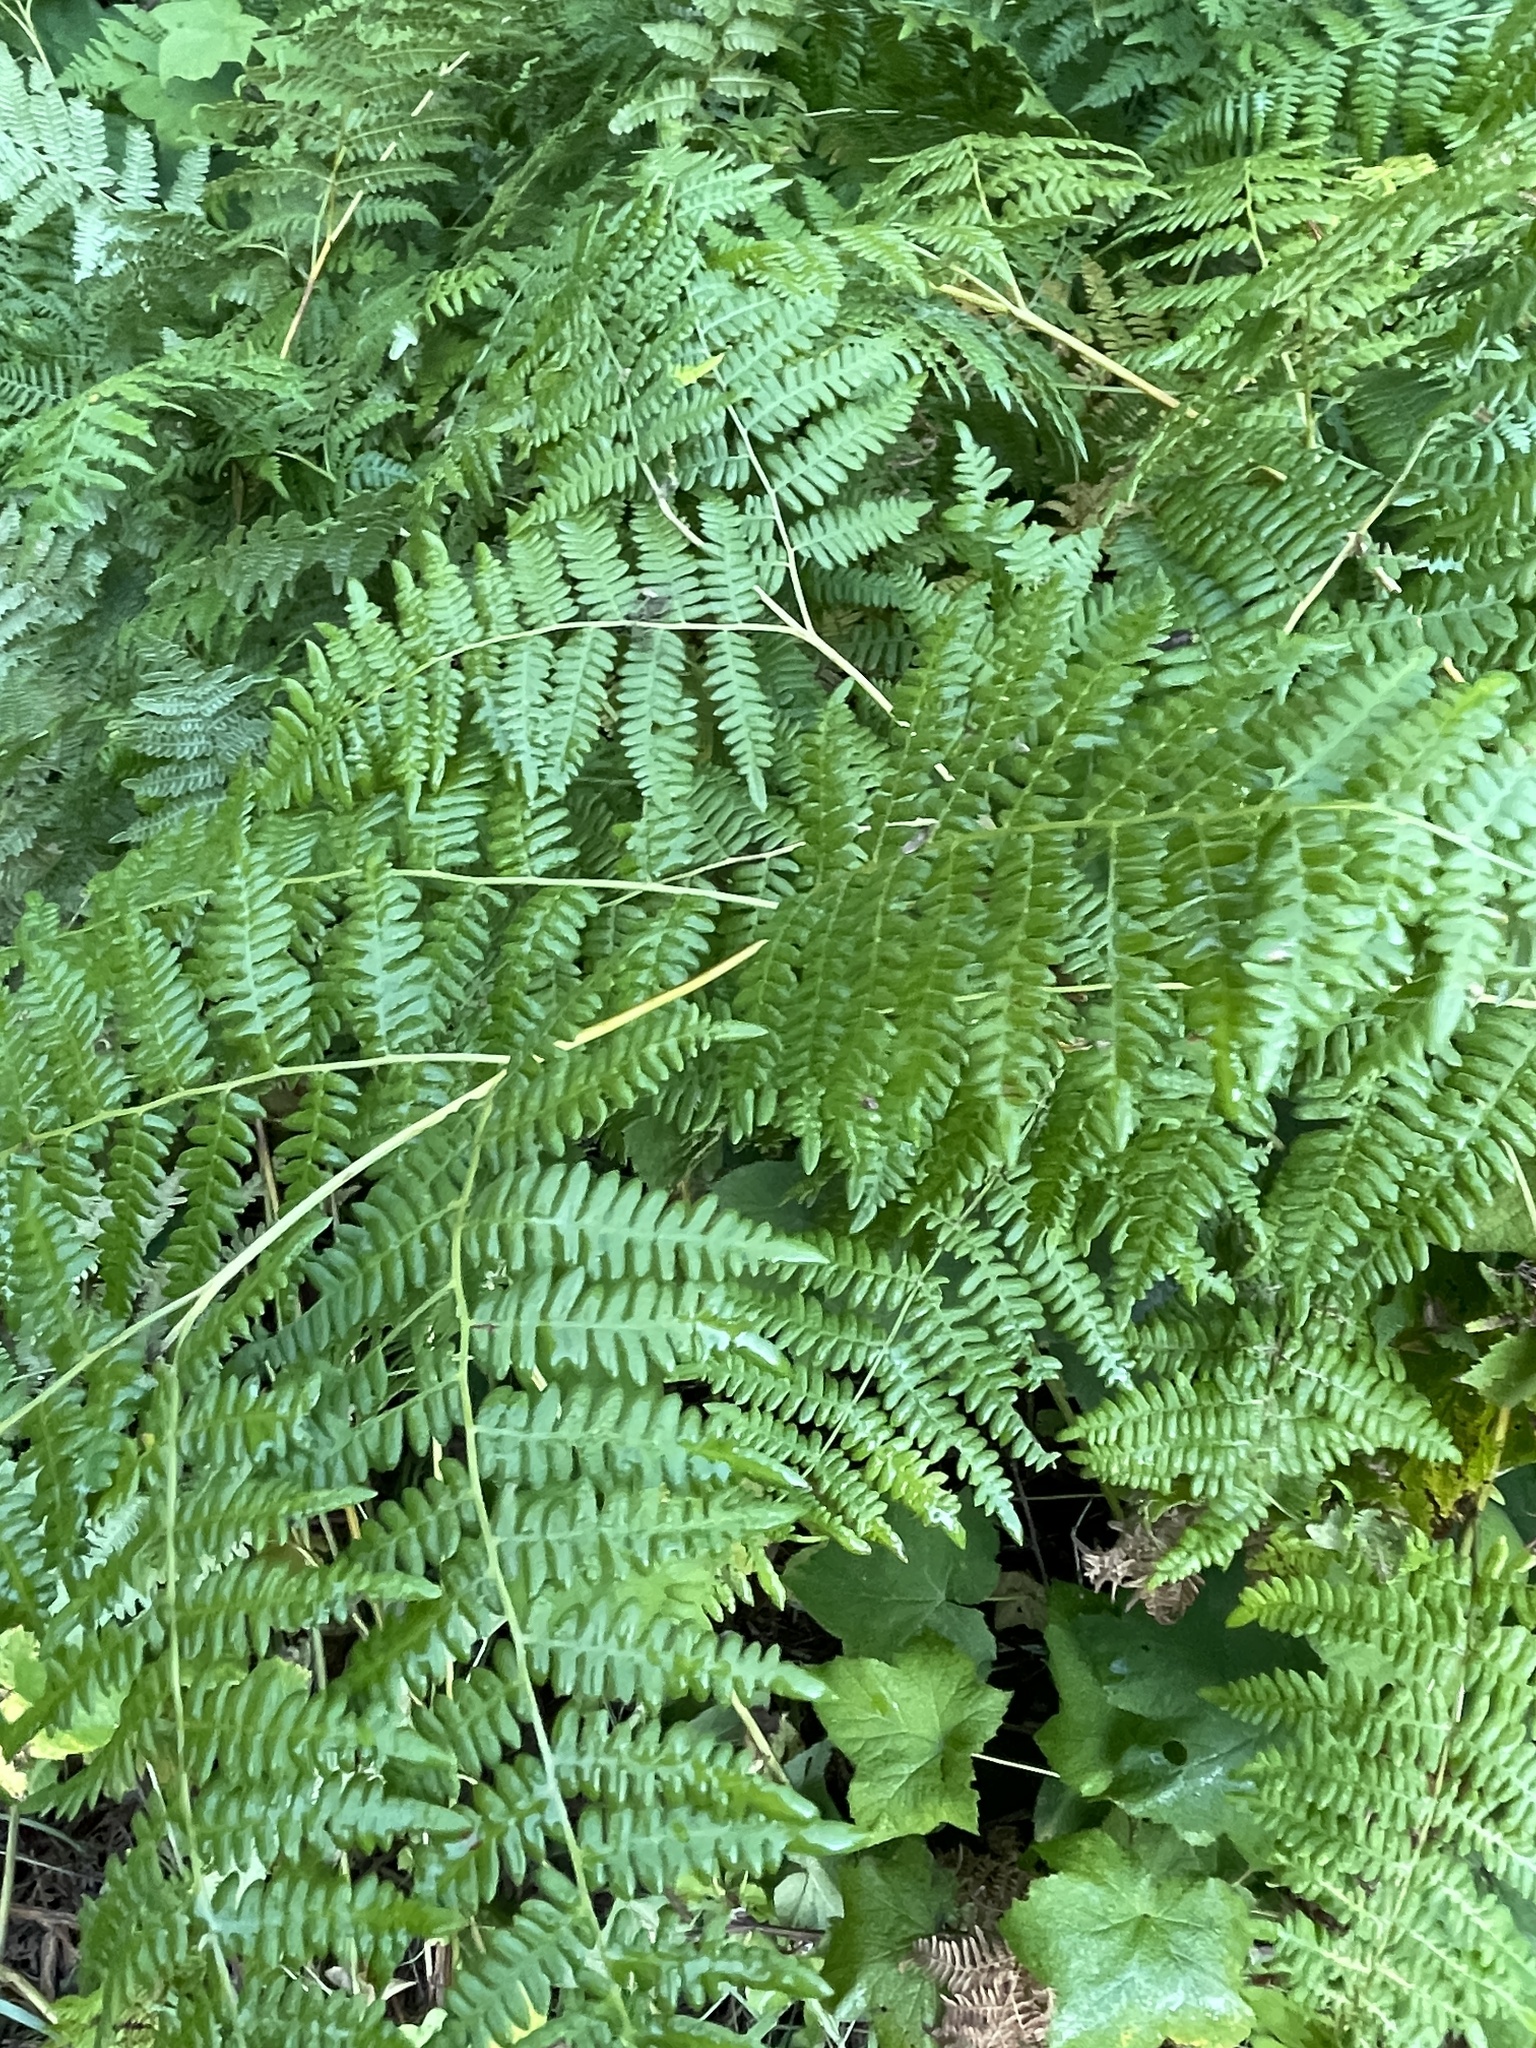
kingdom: Plantae
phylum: Tracheophyta
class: Polypodiopsida
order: Polypodiales
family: Dennstaedtiaceae
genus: Pteridium
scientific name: Pteridium aquilinum
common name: Bracken
